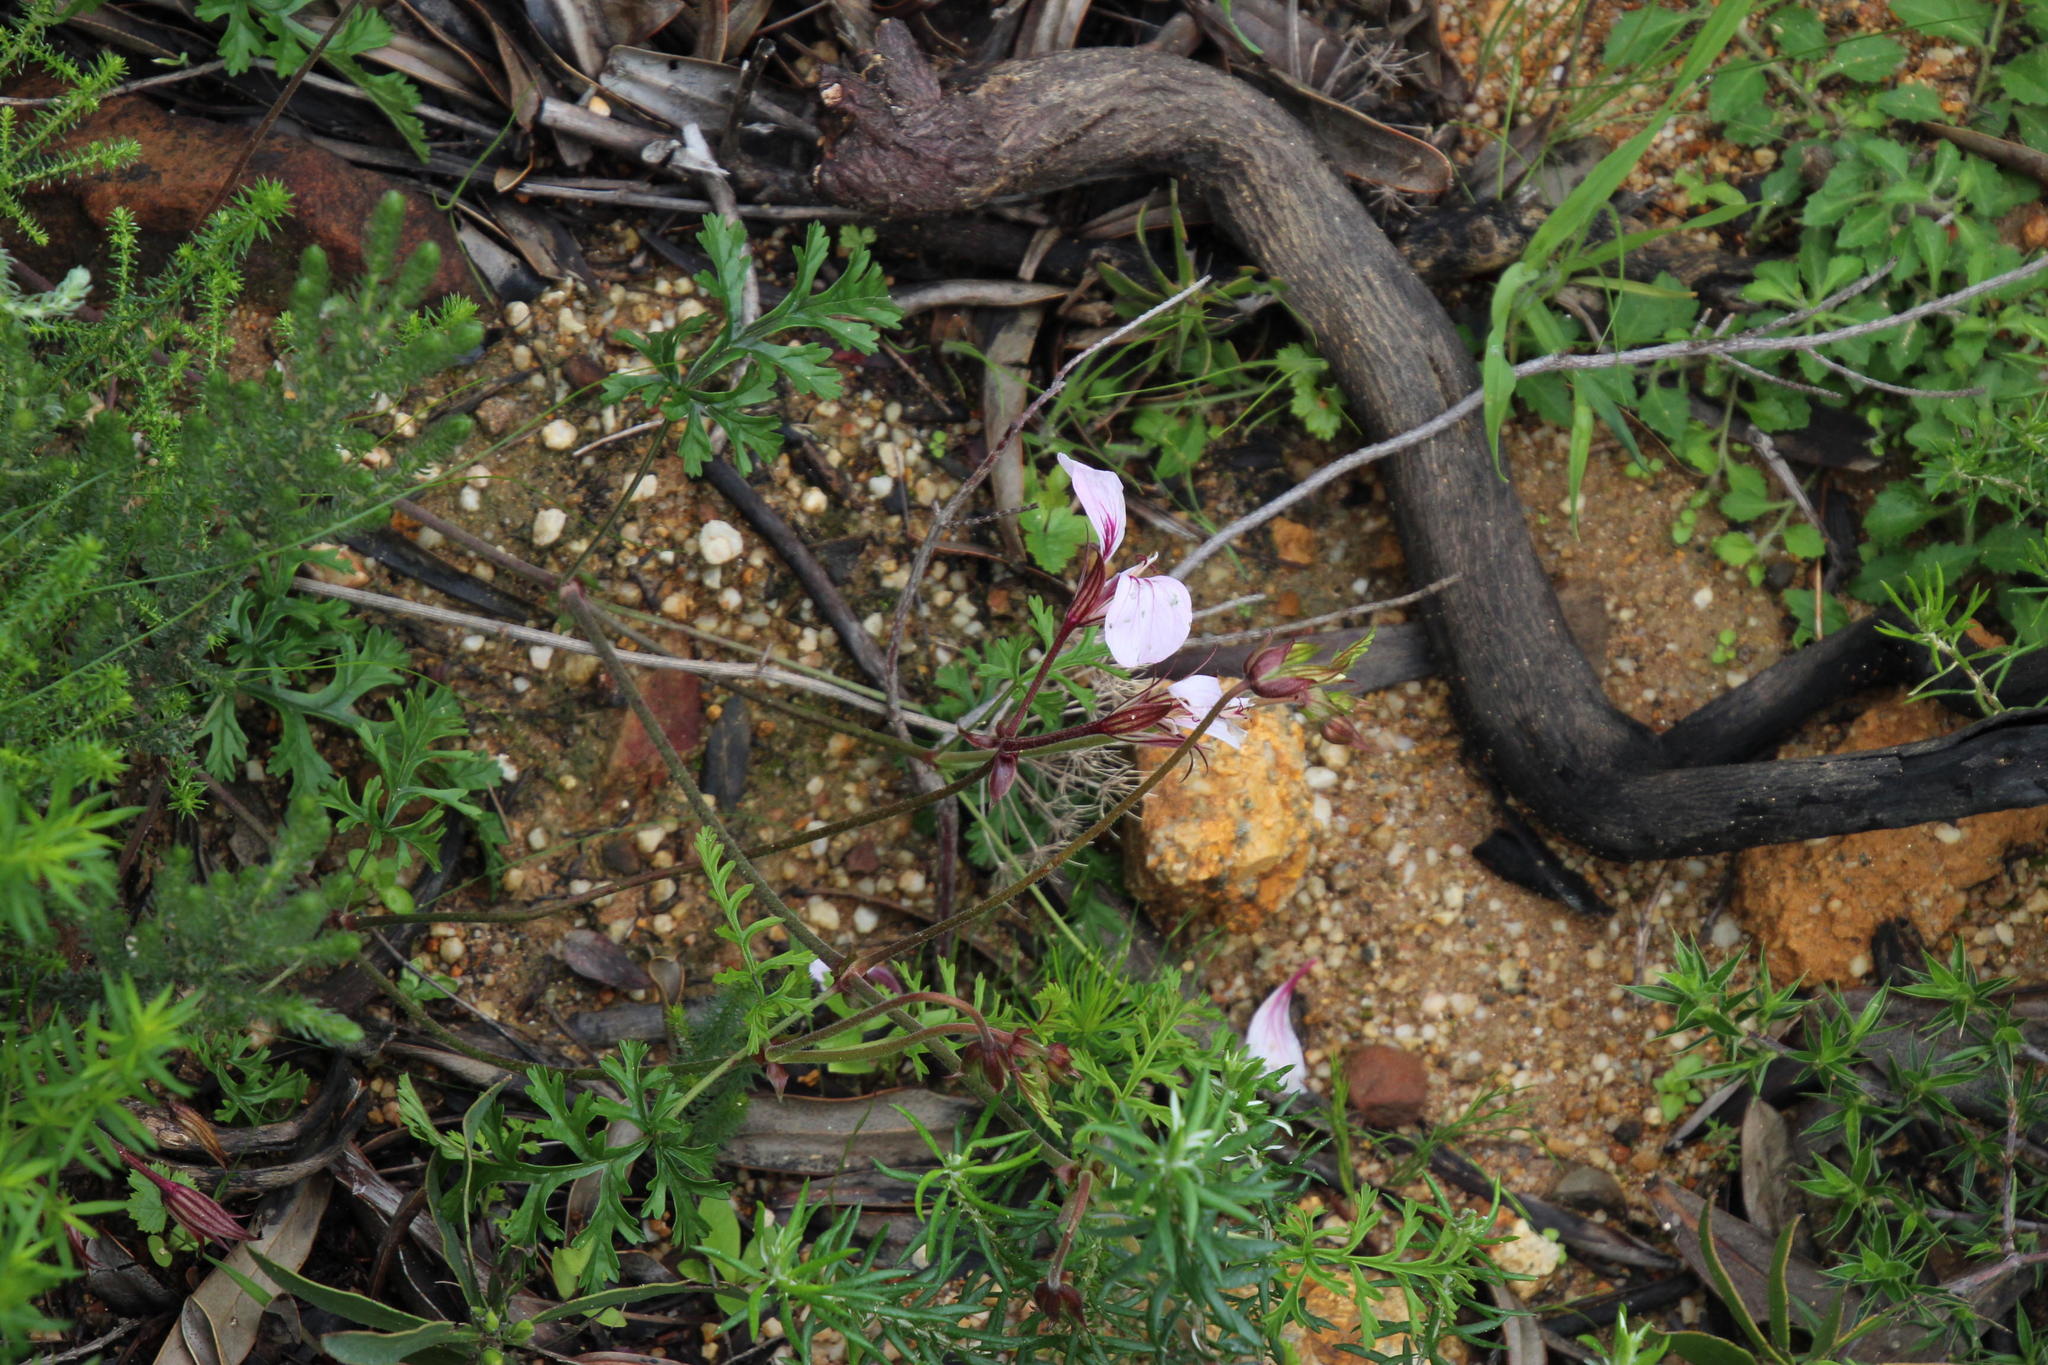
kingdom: Plantae
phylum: Tracheophyta
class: Magnoliopsida
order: Geraniales
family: Geraniaceae
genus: Pelargonium
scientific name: Pelargonium longicaule
